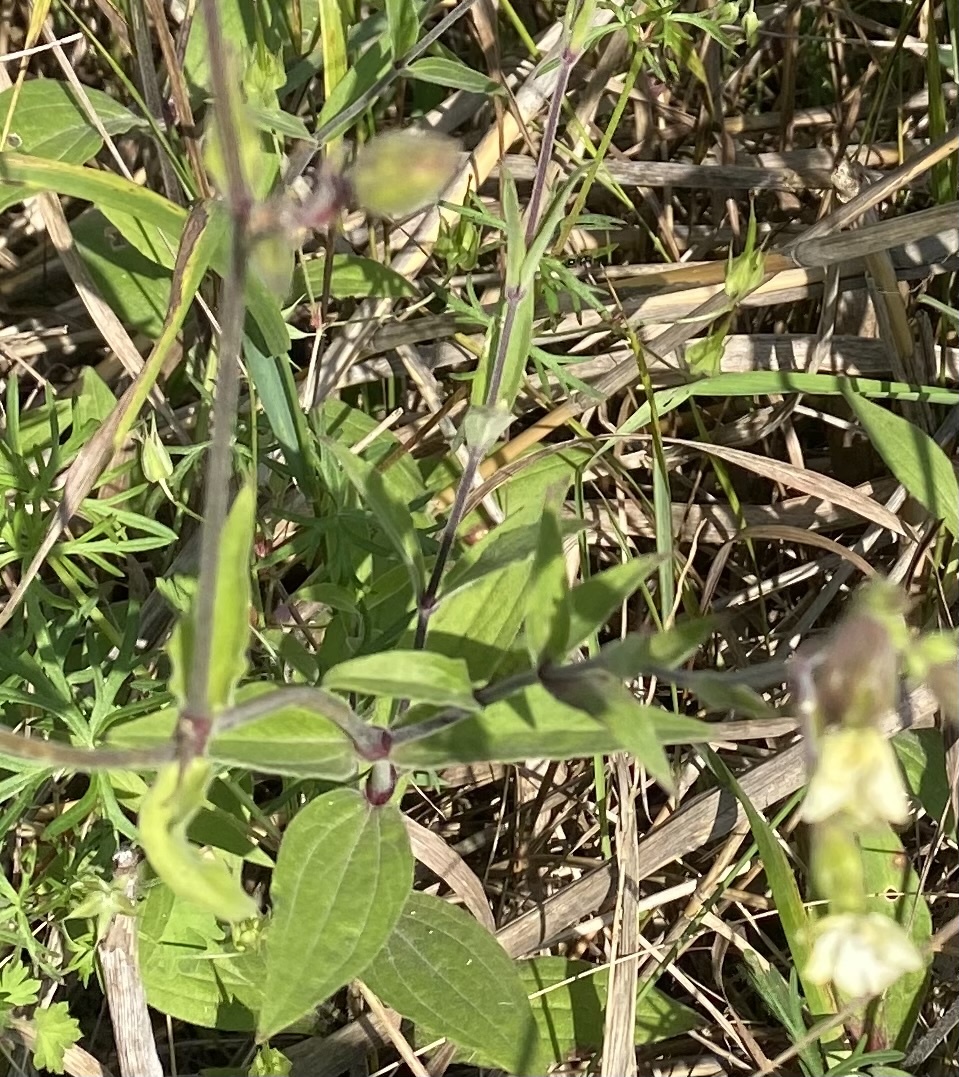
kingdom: Plantae
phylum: Tracheophyta
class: Magnoliopsida
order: Caryophyllales
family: Caryophyllaceae
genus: Silene
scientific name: Silene latifolia
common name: White campion
